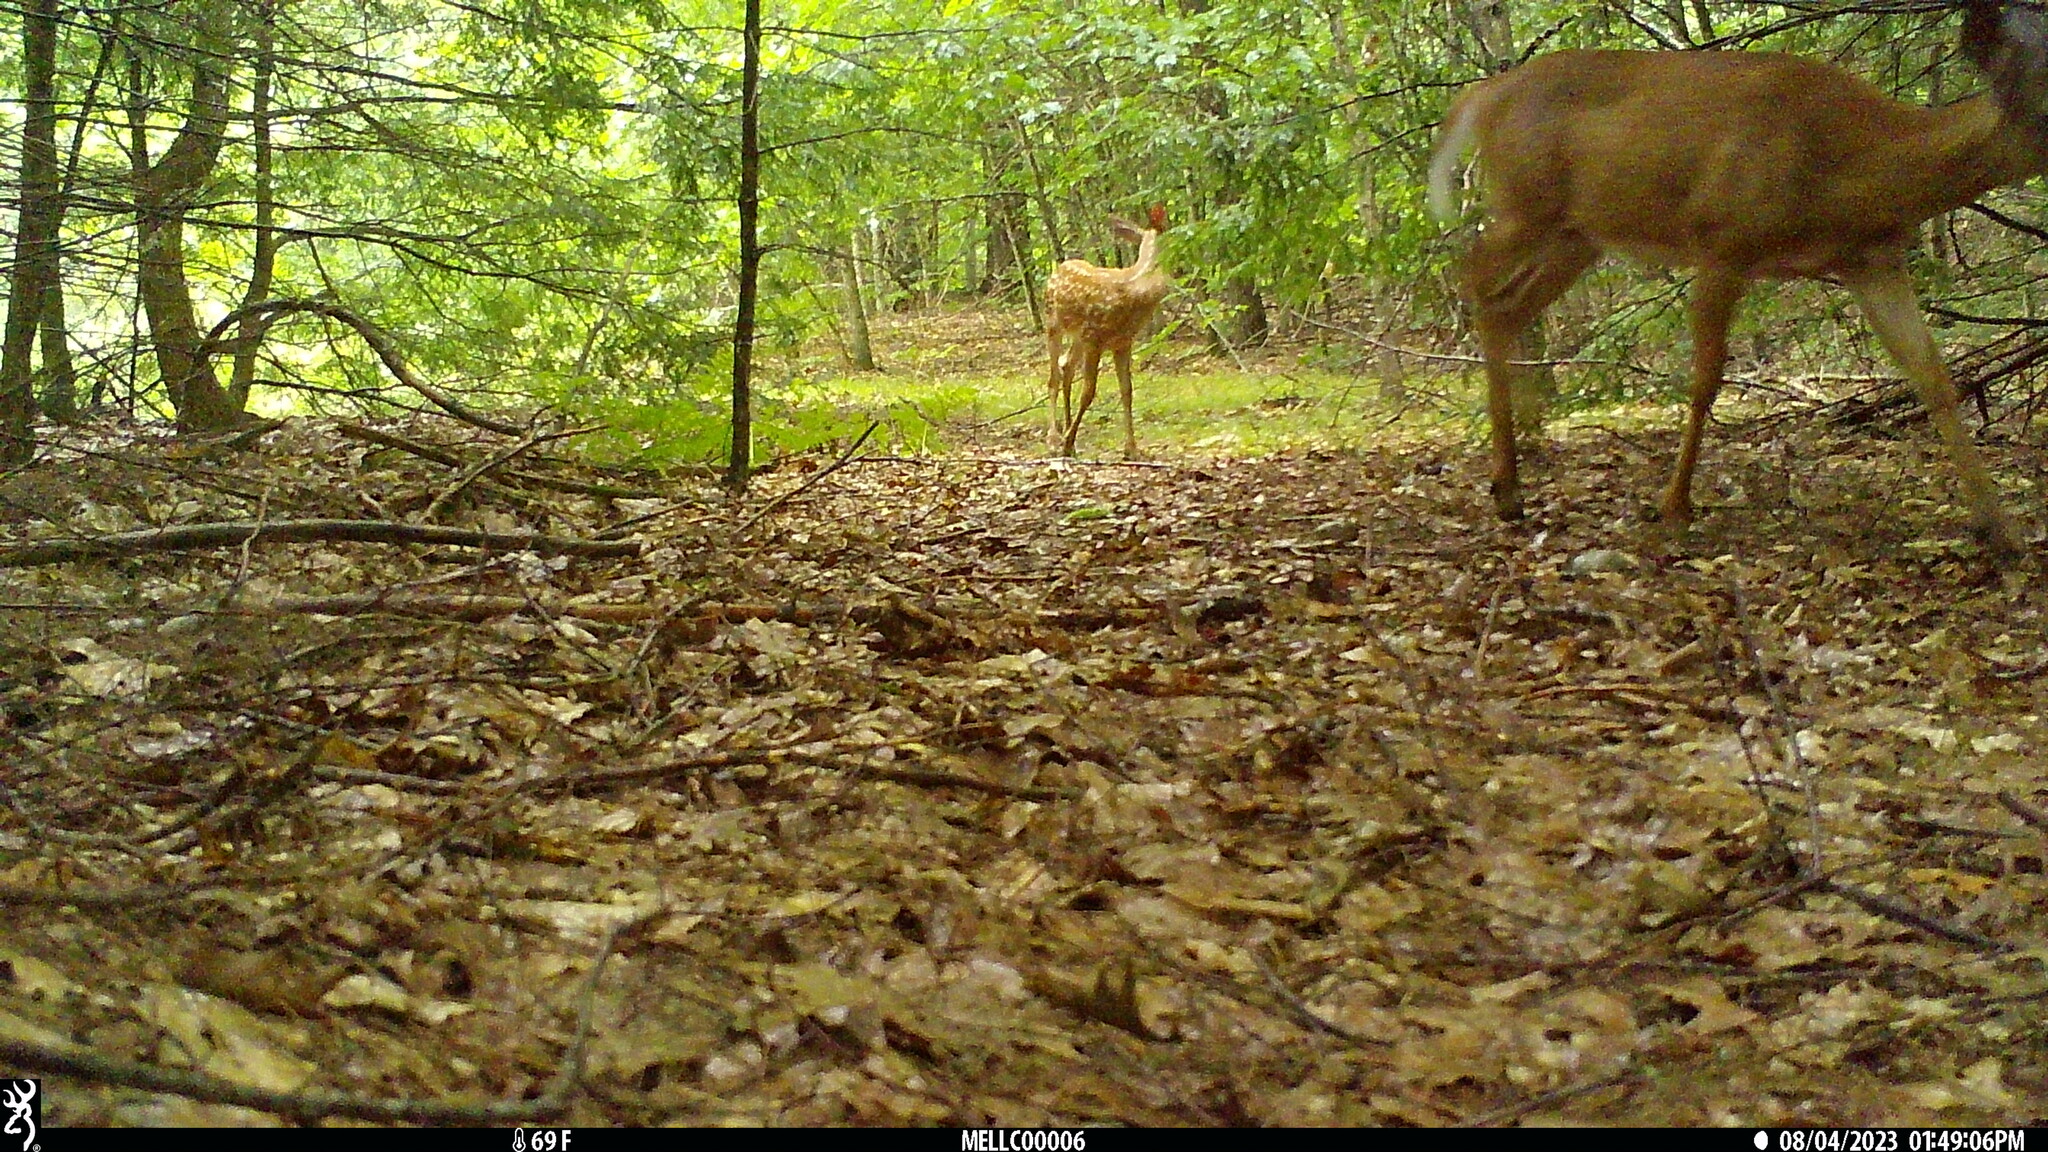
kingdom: Animalia
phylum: Chordata
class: Mammalia
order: Artiodactyla
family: Cervidae
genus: Odocoileus
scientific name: Odocoileus virginianus
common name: White-tailed deer
